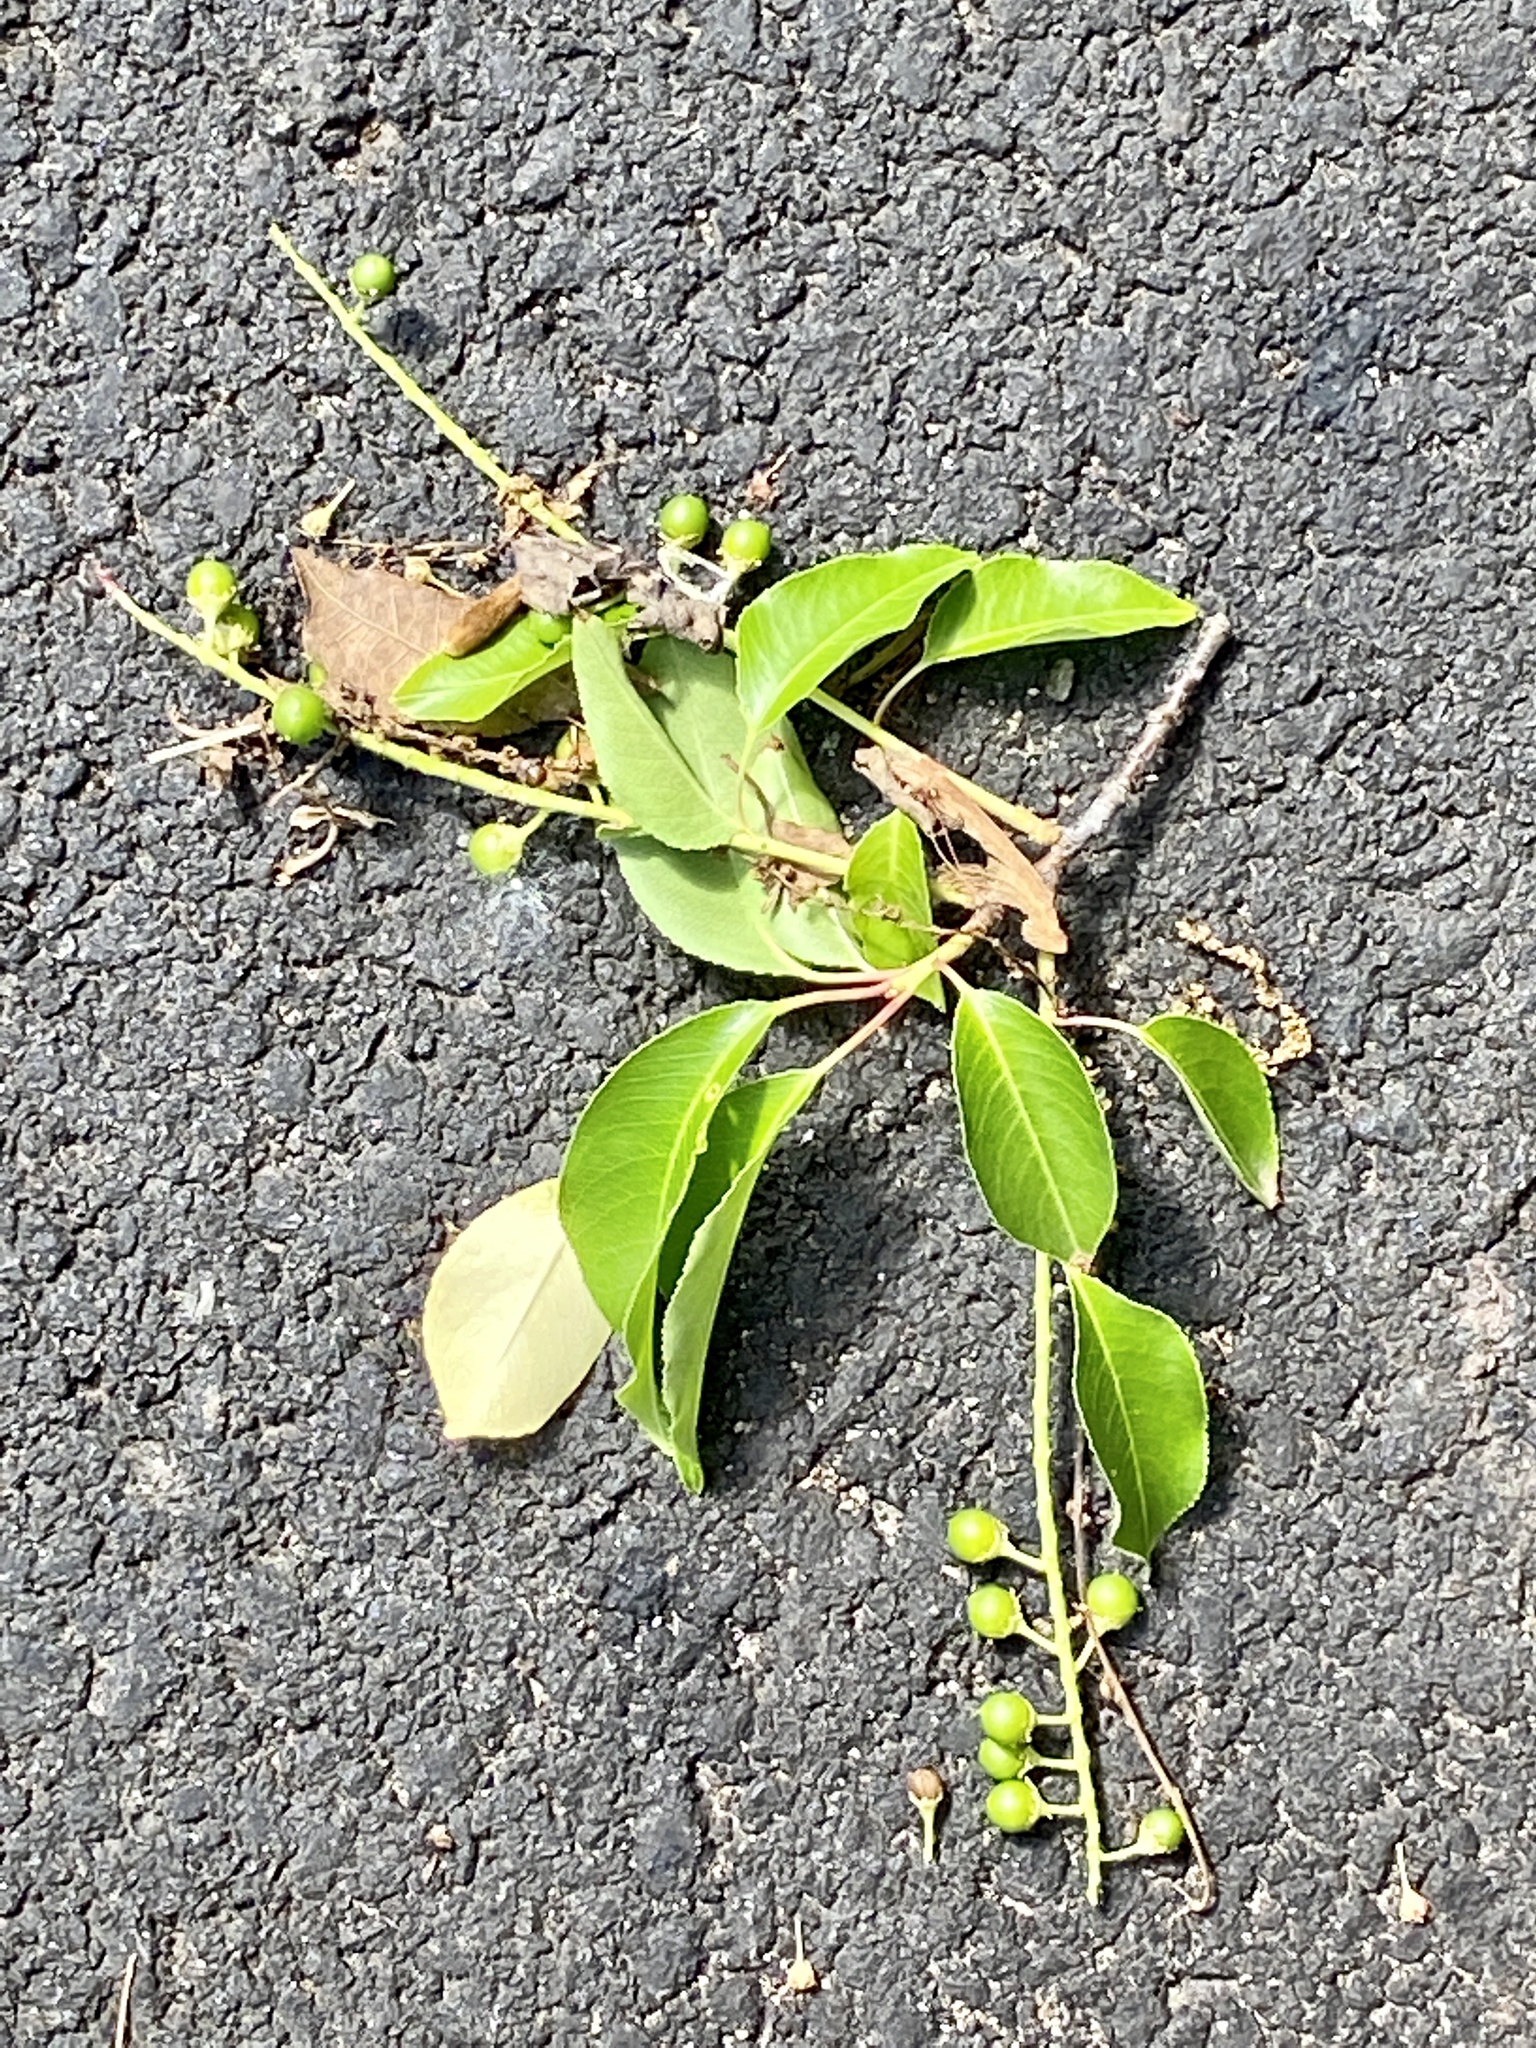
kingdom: Plantae
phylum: Tracheophyta
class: Magnoliopsida
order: Rosales
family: Rosaceae
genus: Prunus
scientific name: Prunus serotina
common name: Black cherry
